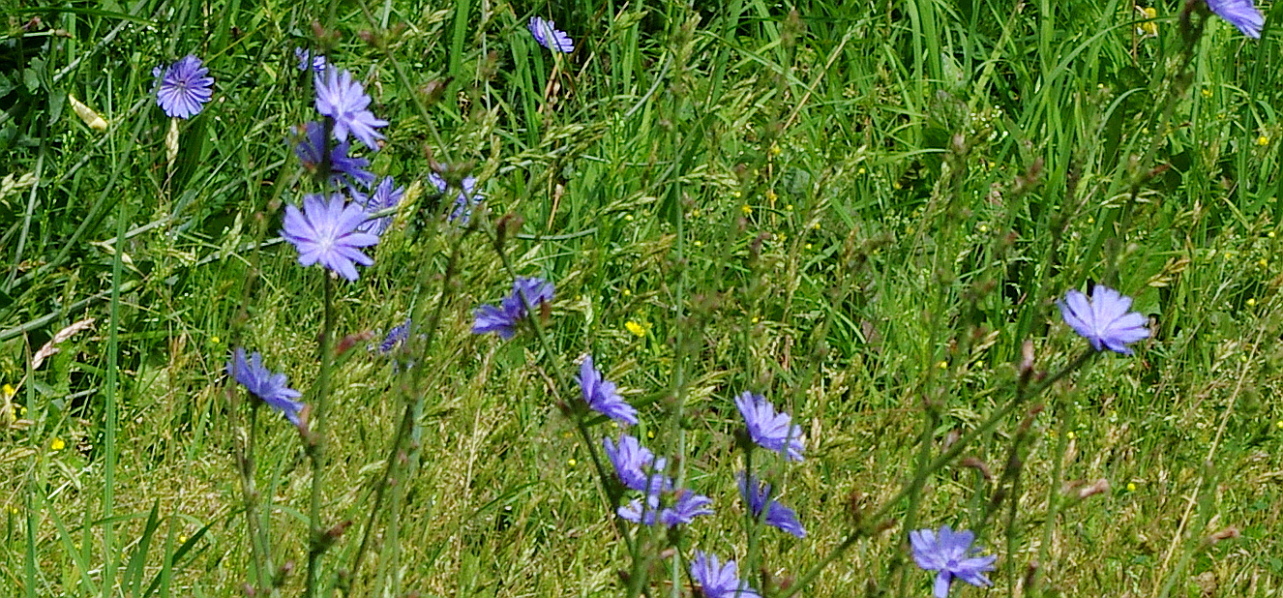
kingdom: Plantae
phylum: Tracheophyta
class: Magnoliopsida
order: Asterales
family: Asteraceae
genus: Cichorium
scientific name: Cichorium intybus
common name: Chicory
